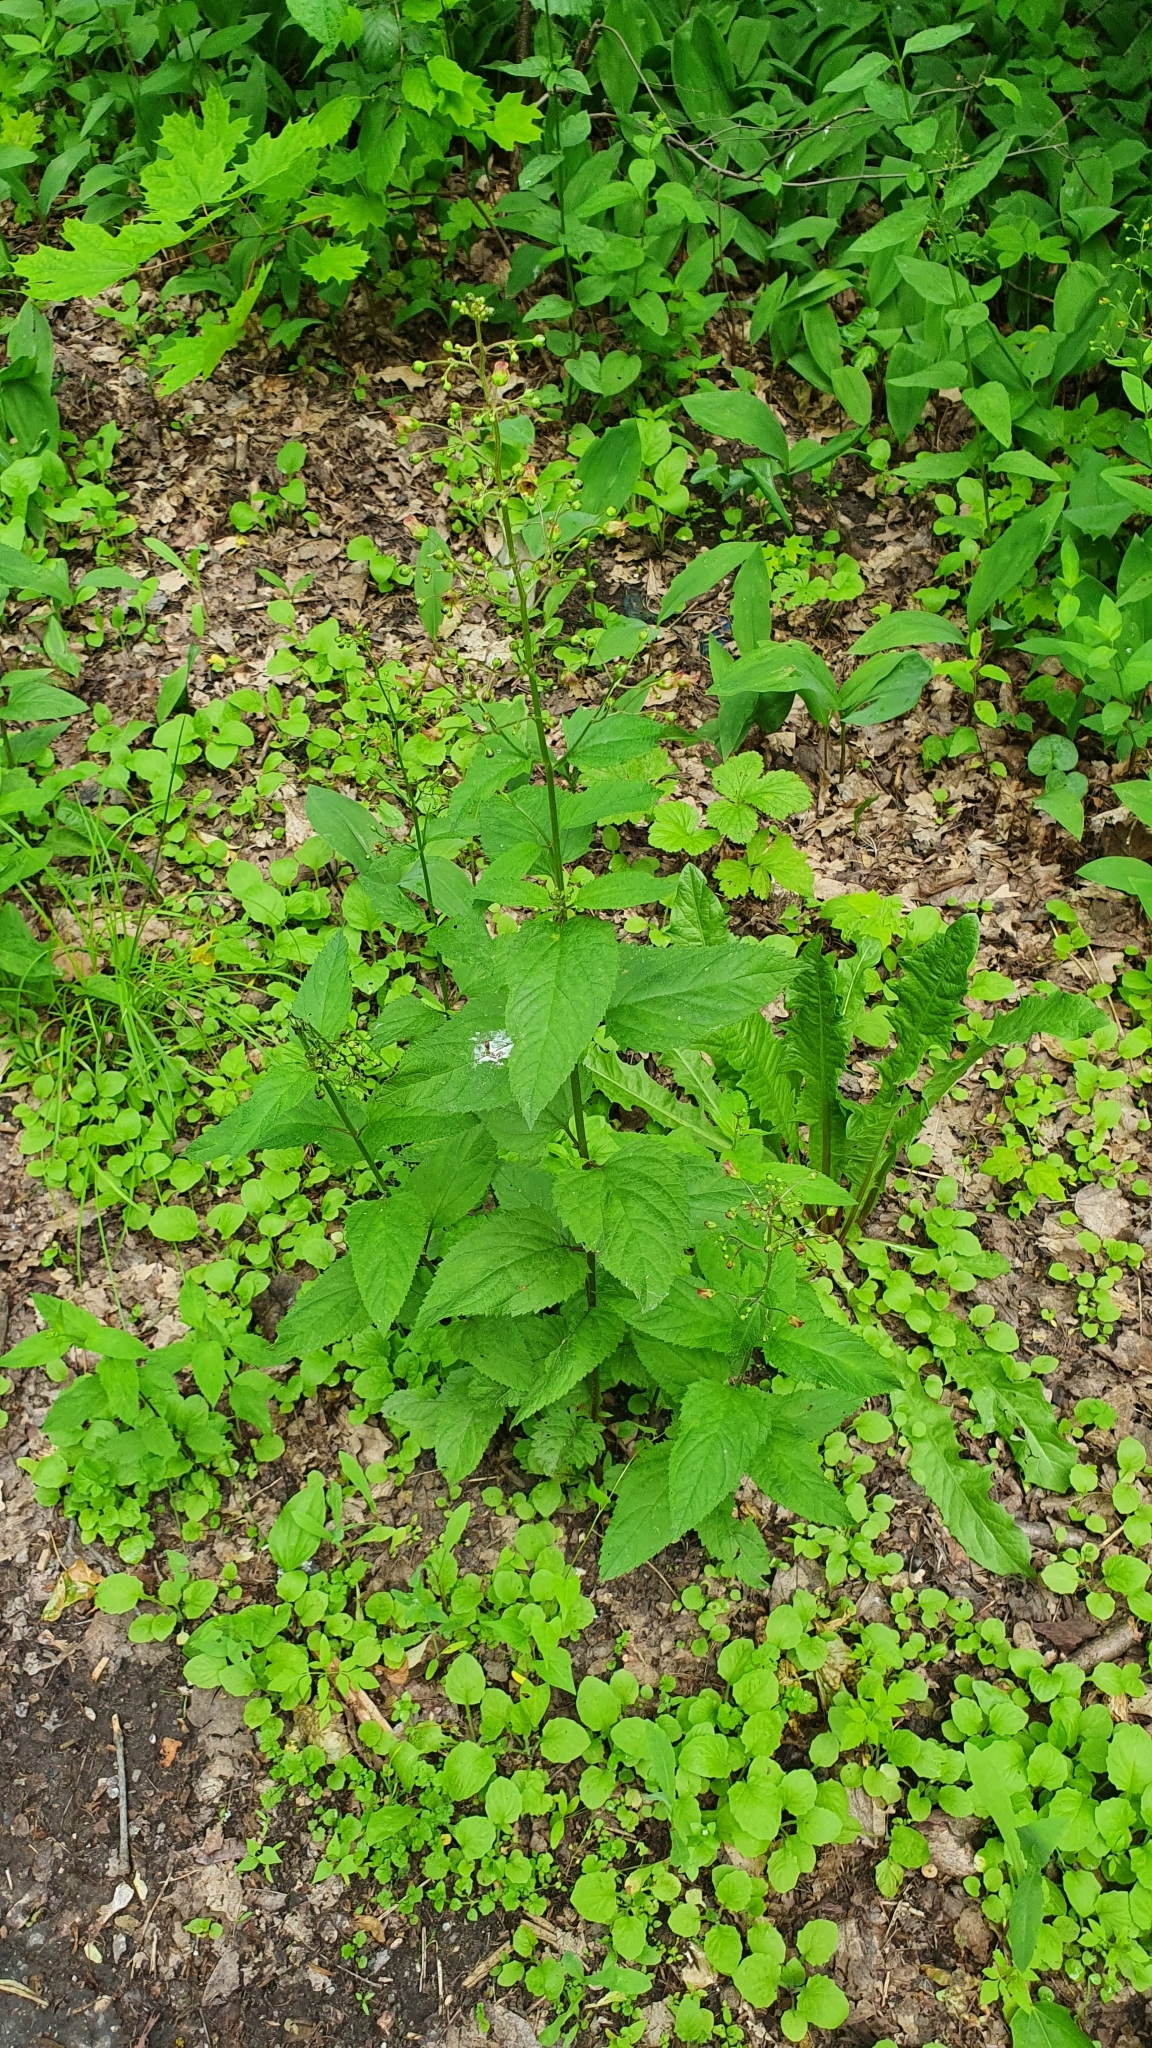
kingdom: Plantae
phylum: Tracheophyta
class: Magnoliopsida
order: Lamiales
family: Scrophulariaceae
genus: Scrophularia
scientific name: Scrophularia nodosa
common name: Common figwort
